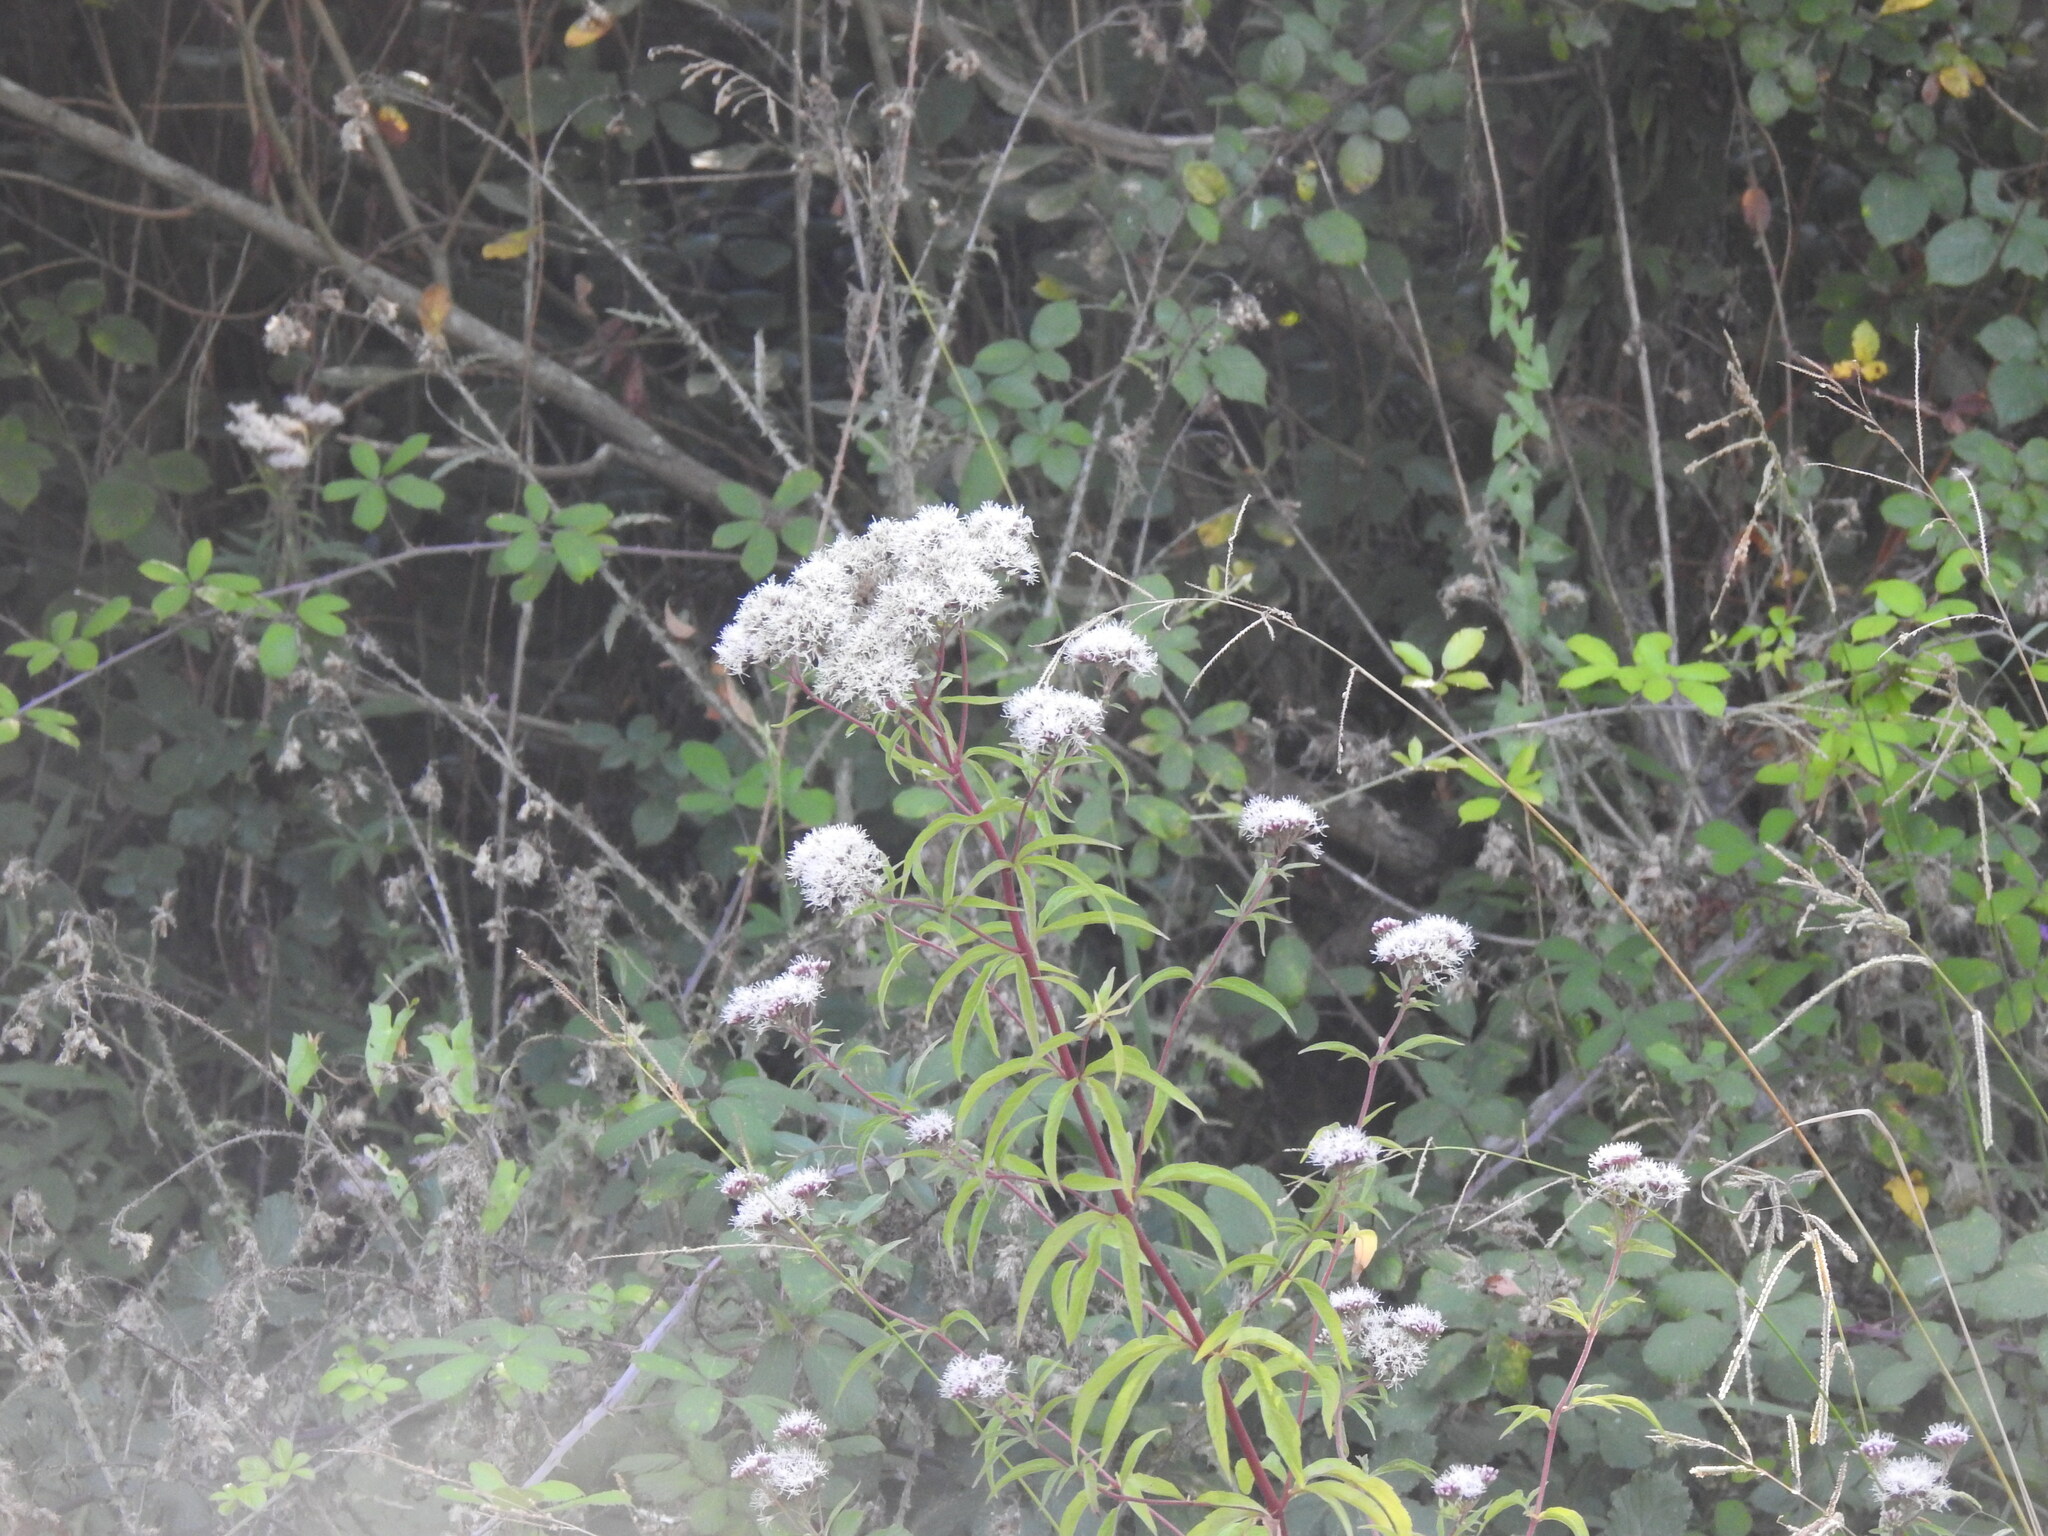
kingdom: Plantae
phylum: Tracheophyta
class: Magnoliopsida
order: Asterales
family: Asteraceae
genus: Eupatorium
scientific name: Eupatorium cannabinum
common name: Hemp-agrimony
